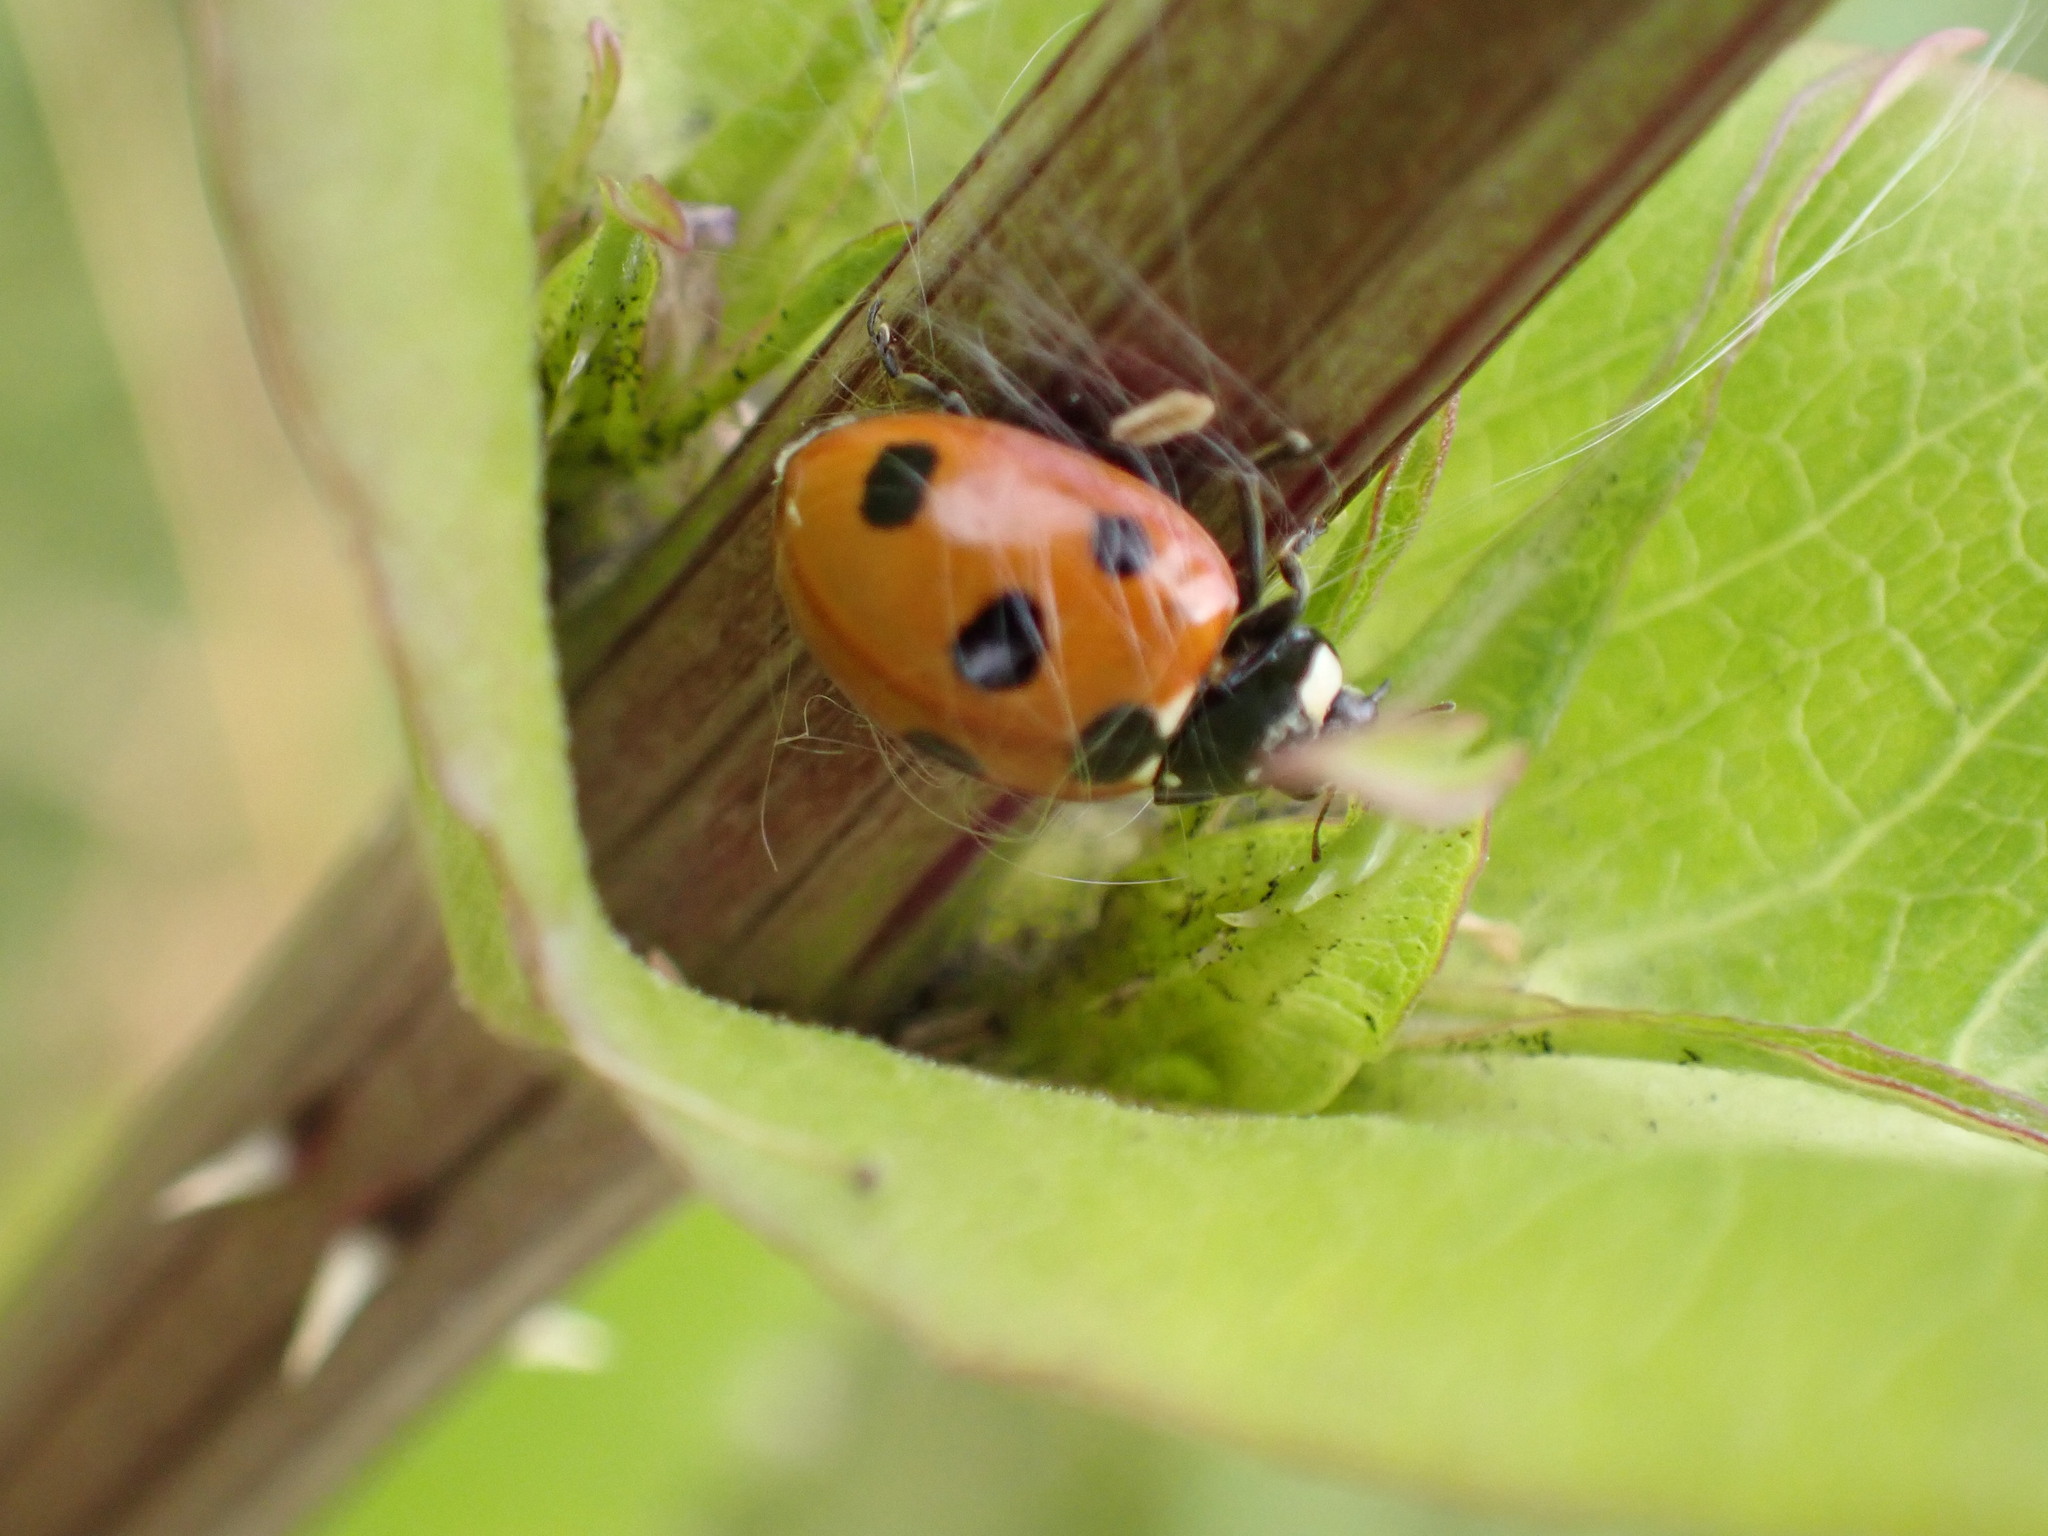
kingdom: Animalia
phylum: Arthropoda
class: Insecta
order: Coleoptera
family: Coccinellidae
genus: Coccinella
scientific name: Coccinella septempunctata
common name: Sevenspotted lady beetle
